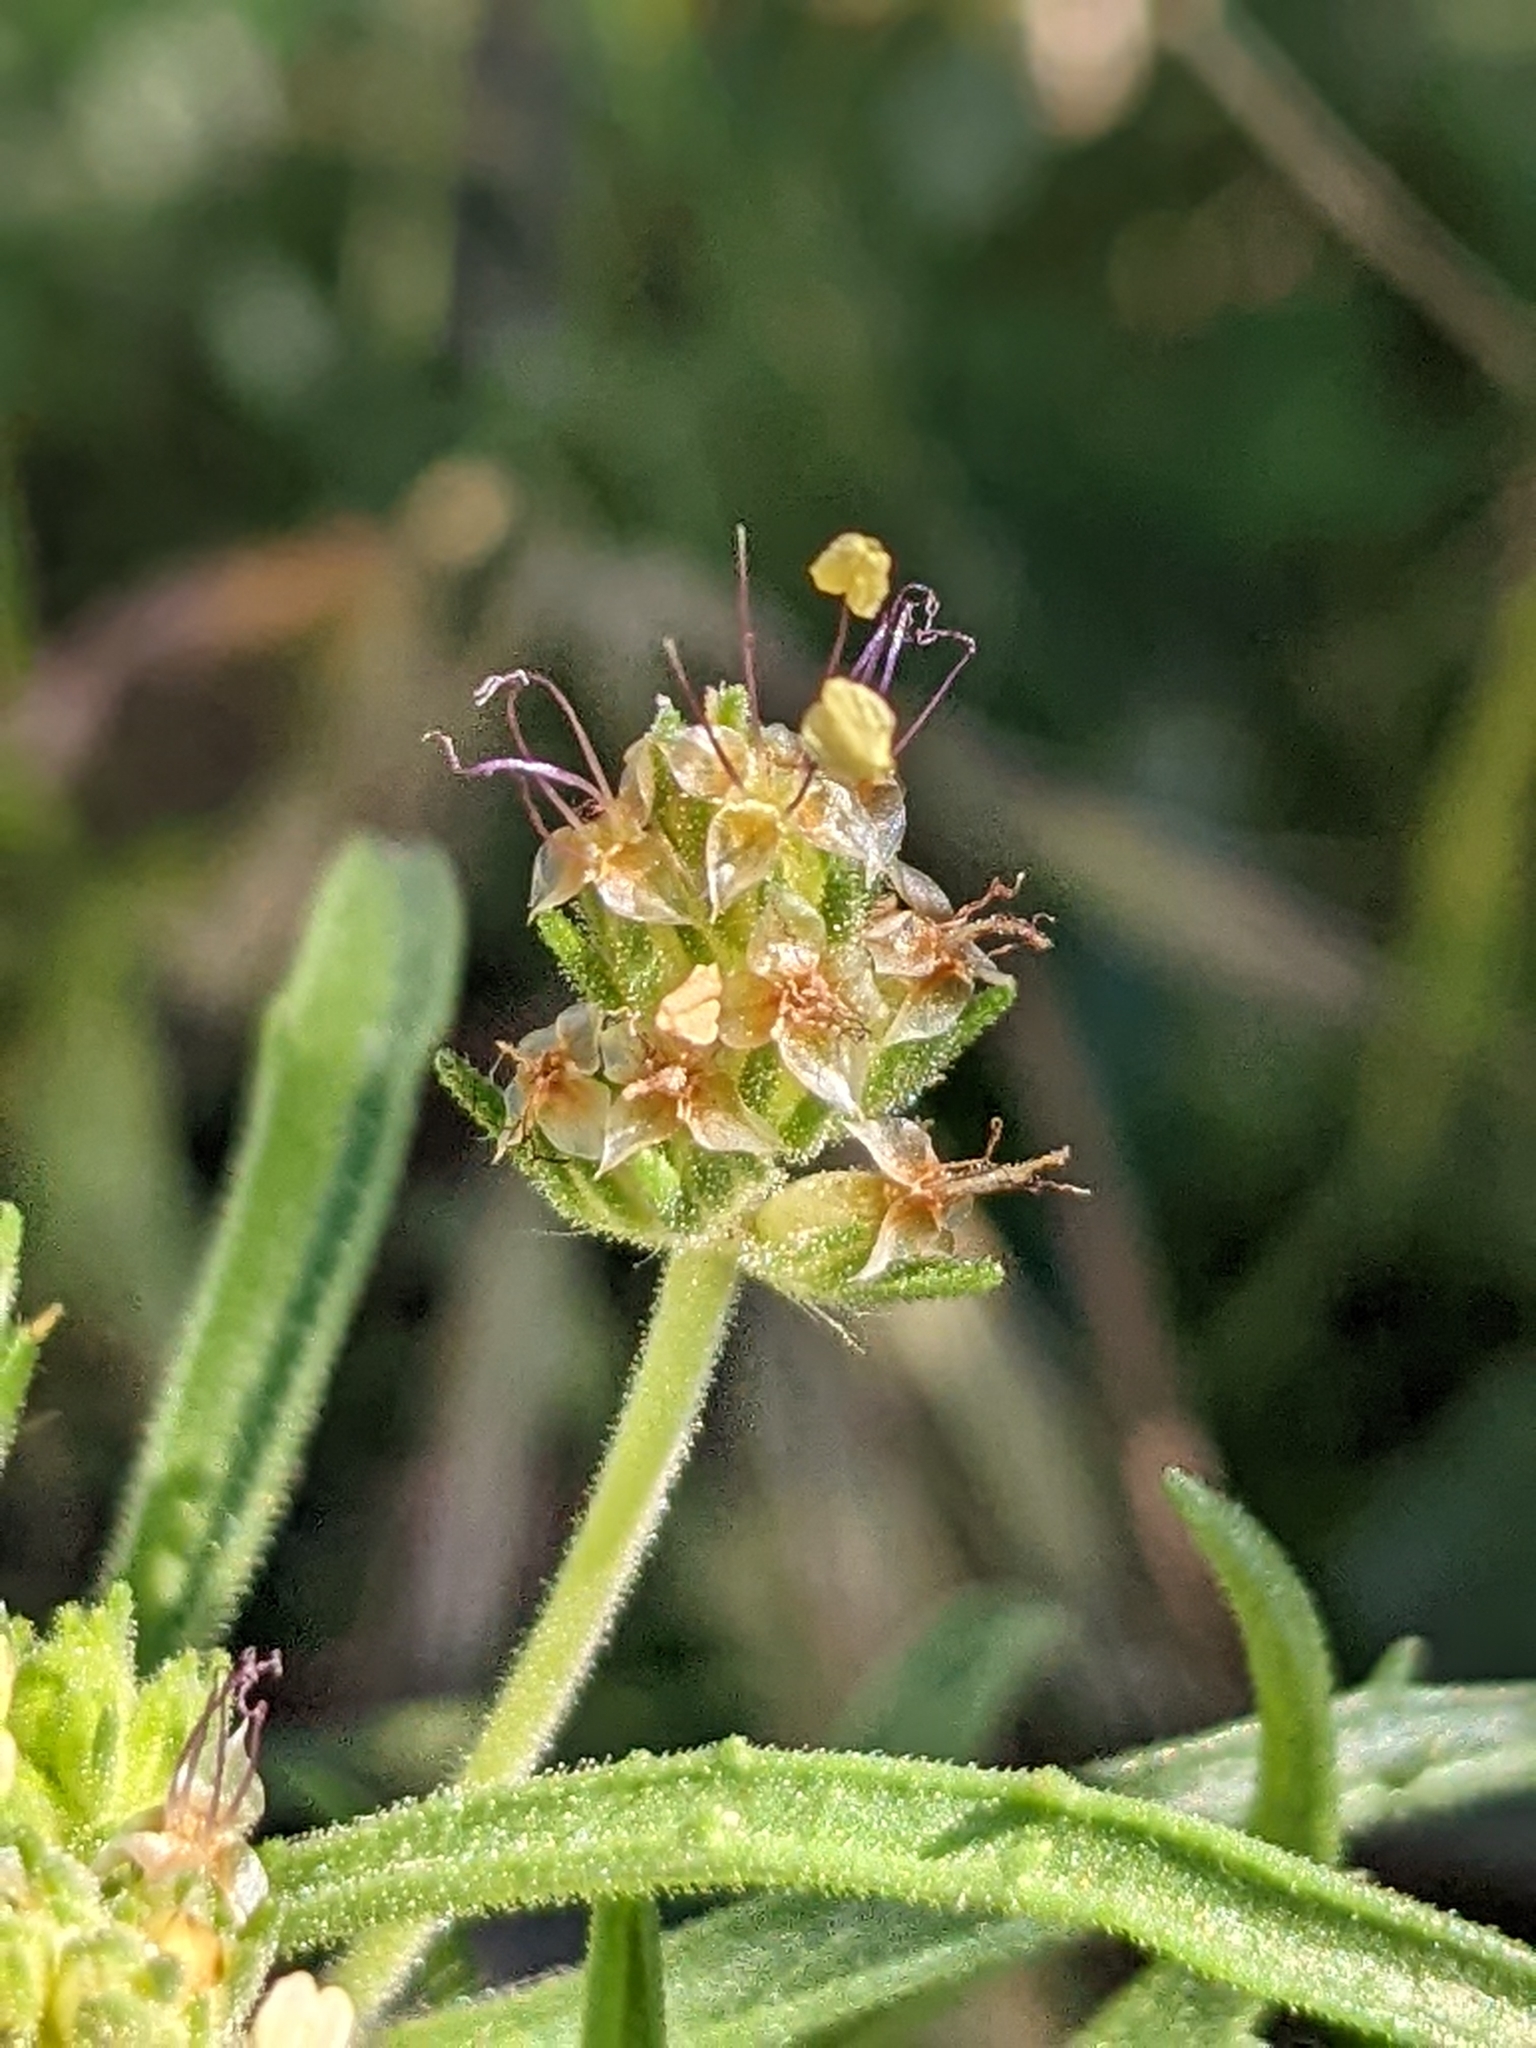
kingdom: Plantae
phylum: Tracheophyta
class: Magnoliopsida
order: Lamiales
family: Plantaginaceae
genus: Plantago
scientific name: Plantago afra
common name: Glandular plantain
